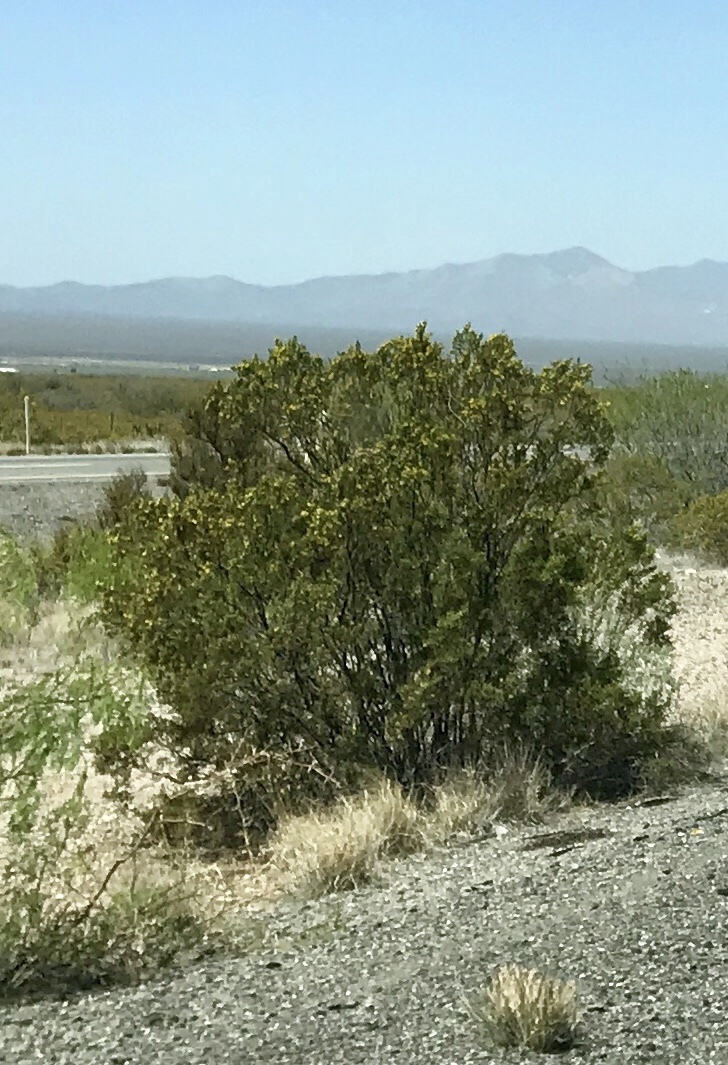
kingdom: Plantae
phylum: Tracheophyta
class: Magnoliopsida
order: Zygophyllales
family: Zygophyllaceae
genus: Larrea
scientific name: Larrea tridentata
